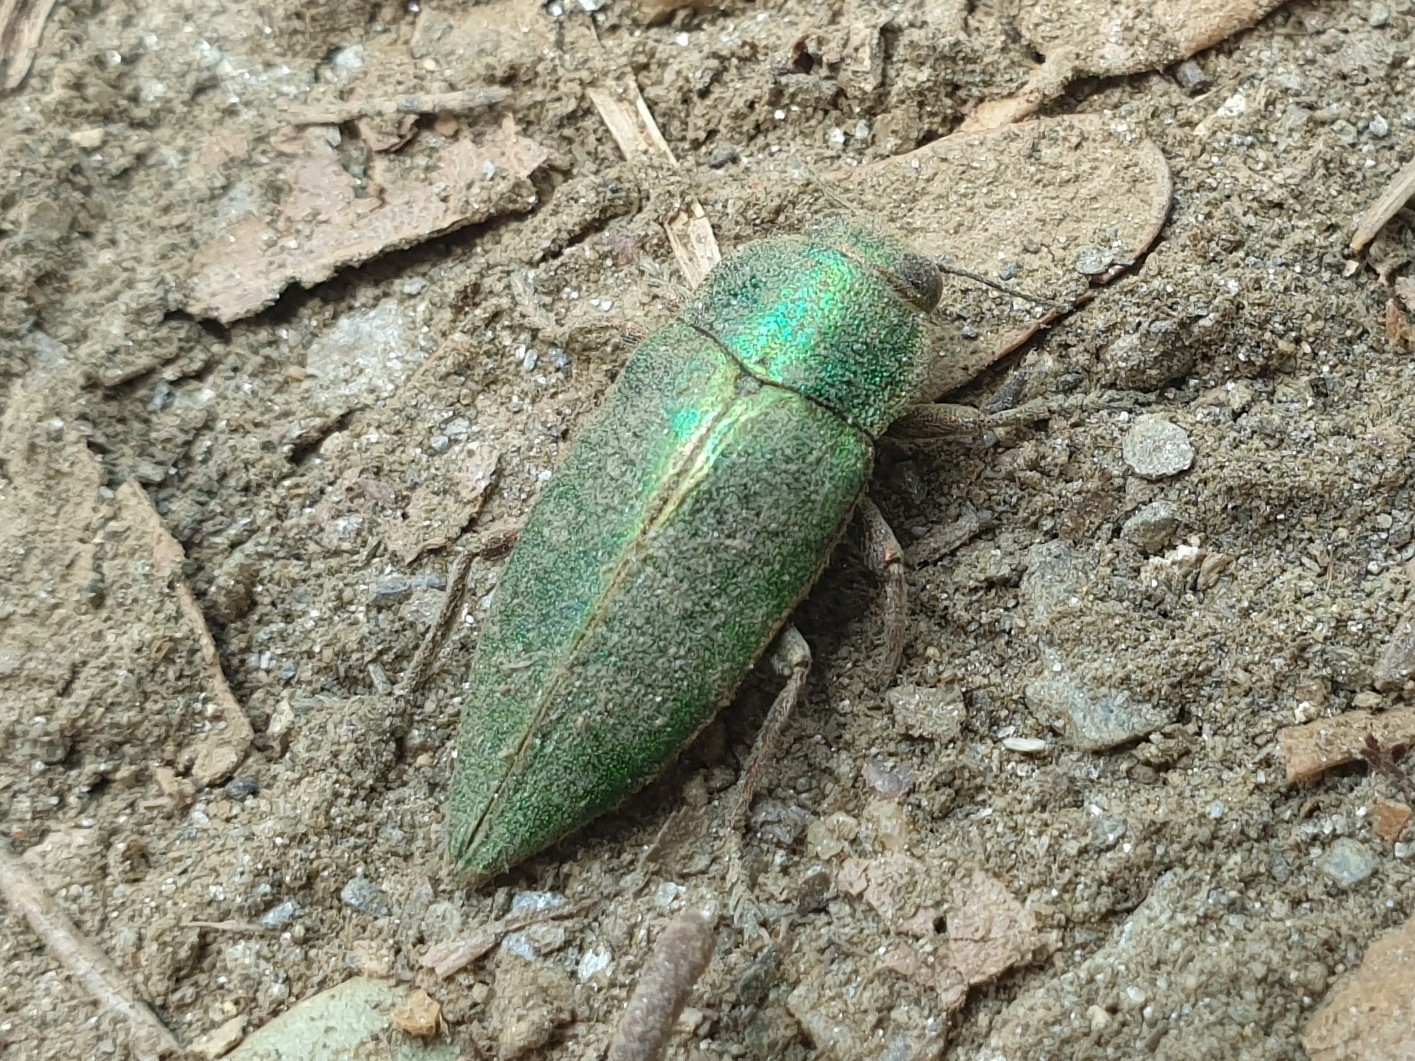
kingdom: Animalia
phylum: Arthropoda
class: Insecta
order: Coleoptera
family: Buprestidae
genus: Latipalpis
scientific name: Latipalpis plana
